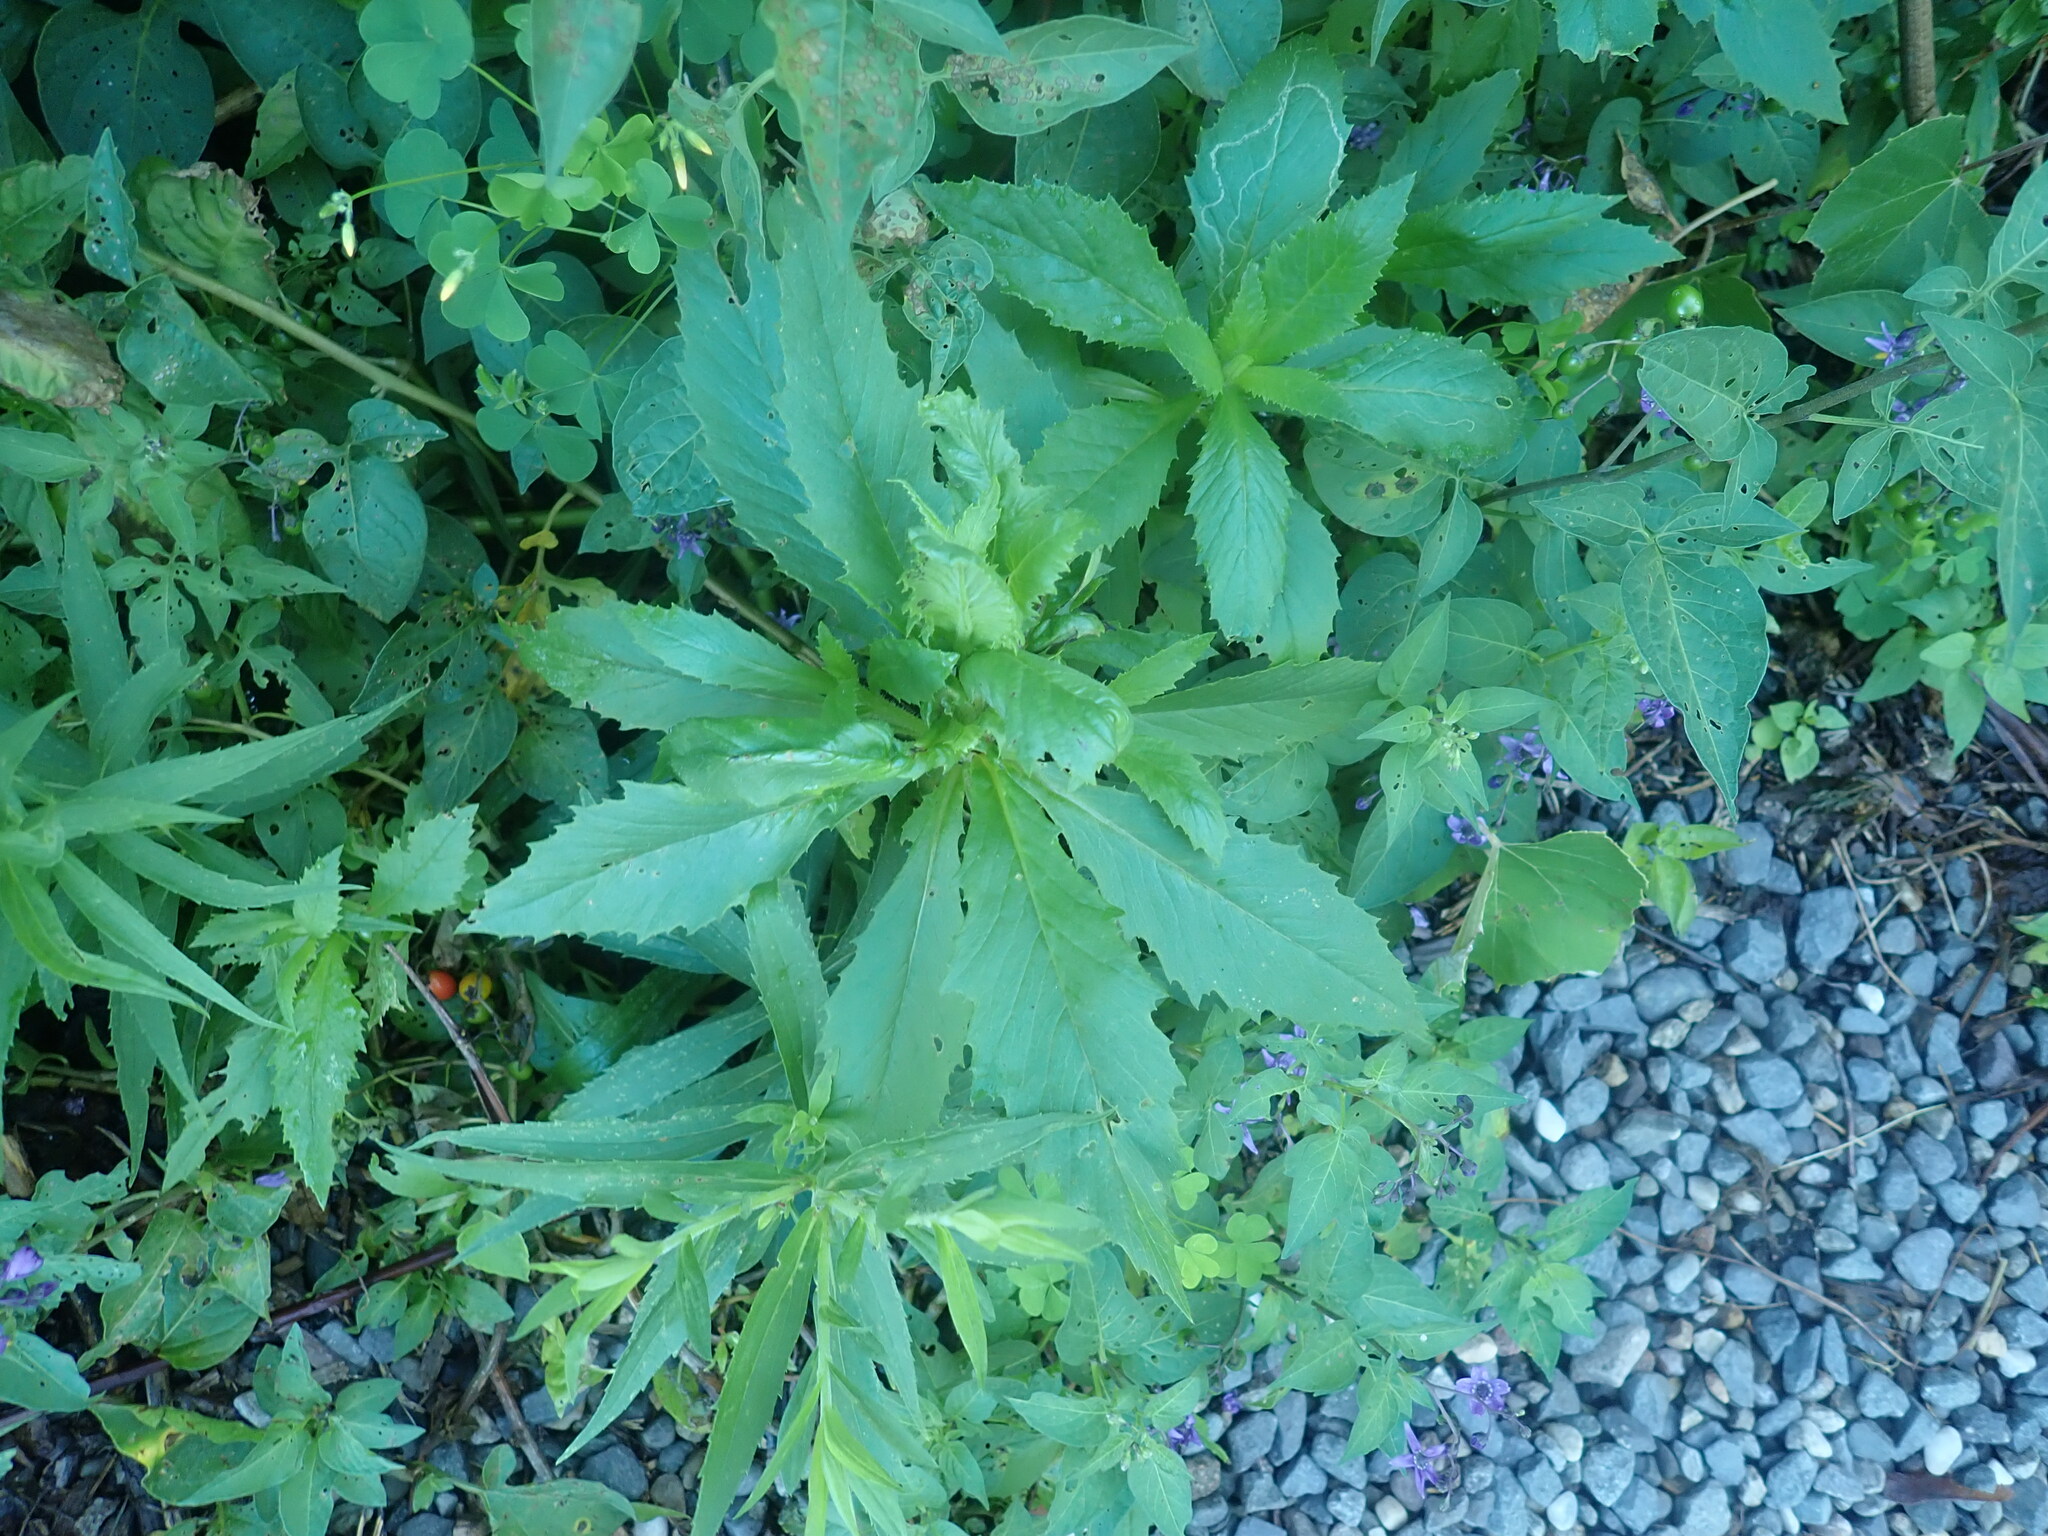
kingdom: Plantae
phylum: Tracheophyta
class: Magnoliopsida
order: Asterales
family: Asteraceae
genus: Erechtites
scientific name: Erechtites hieraciifolius
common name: American burnweed
